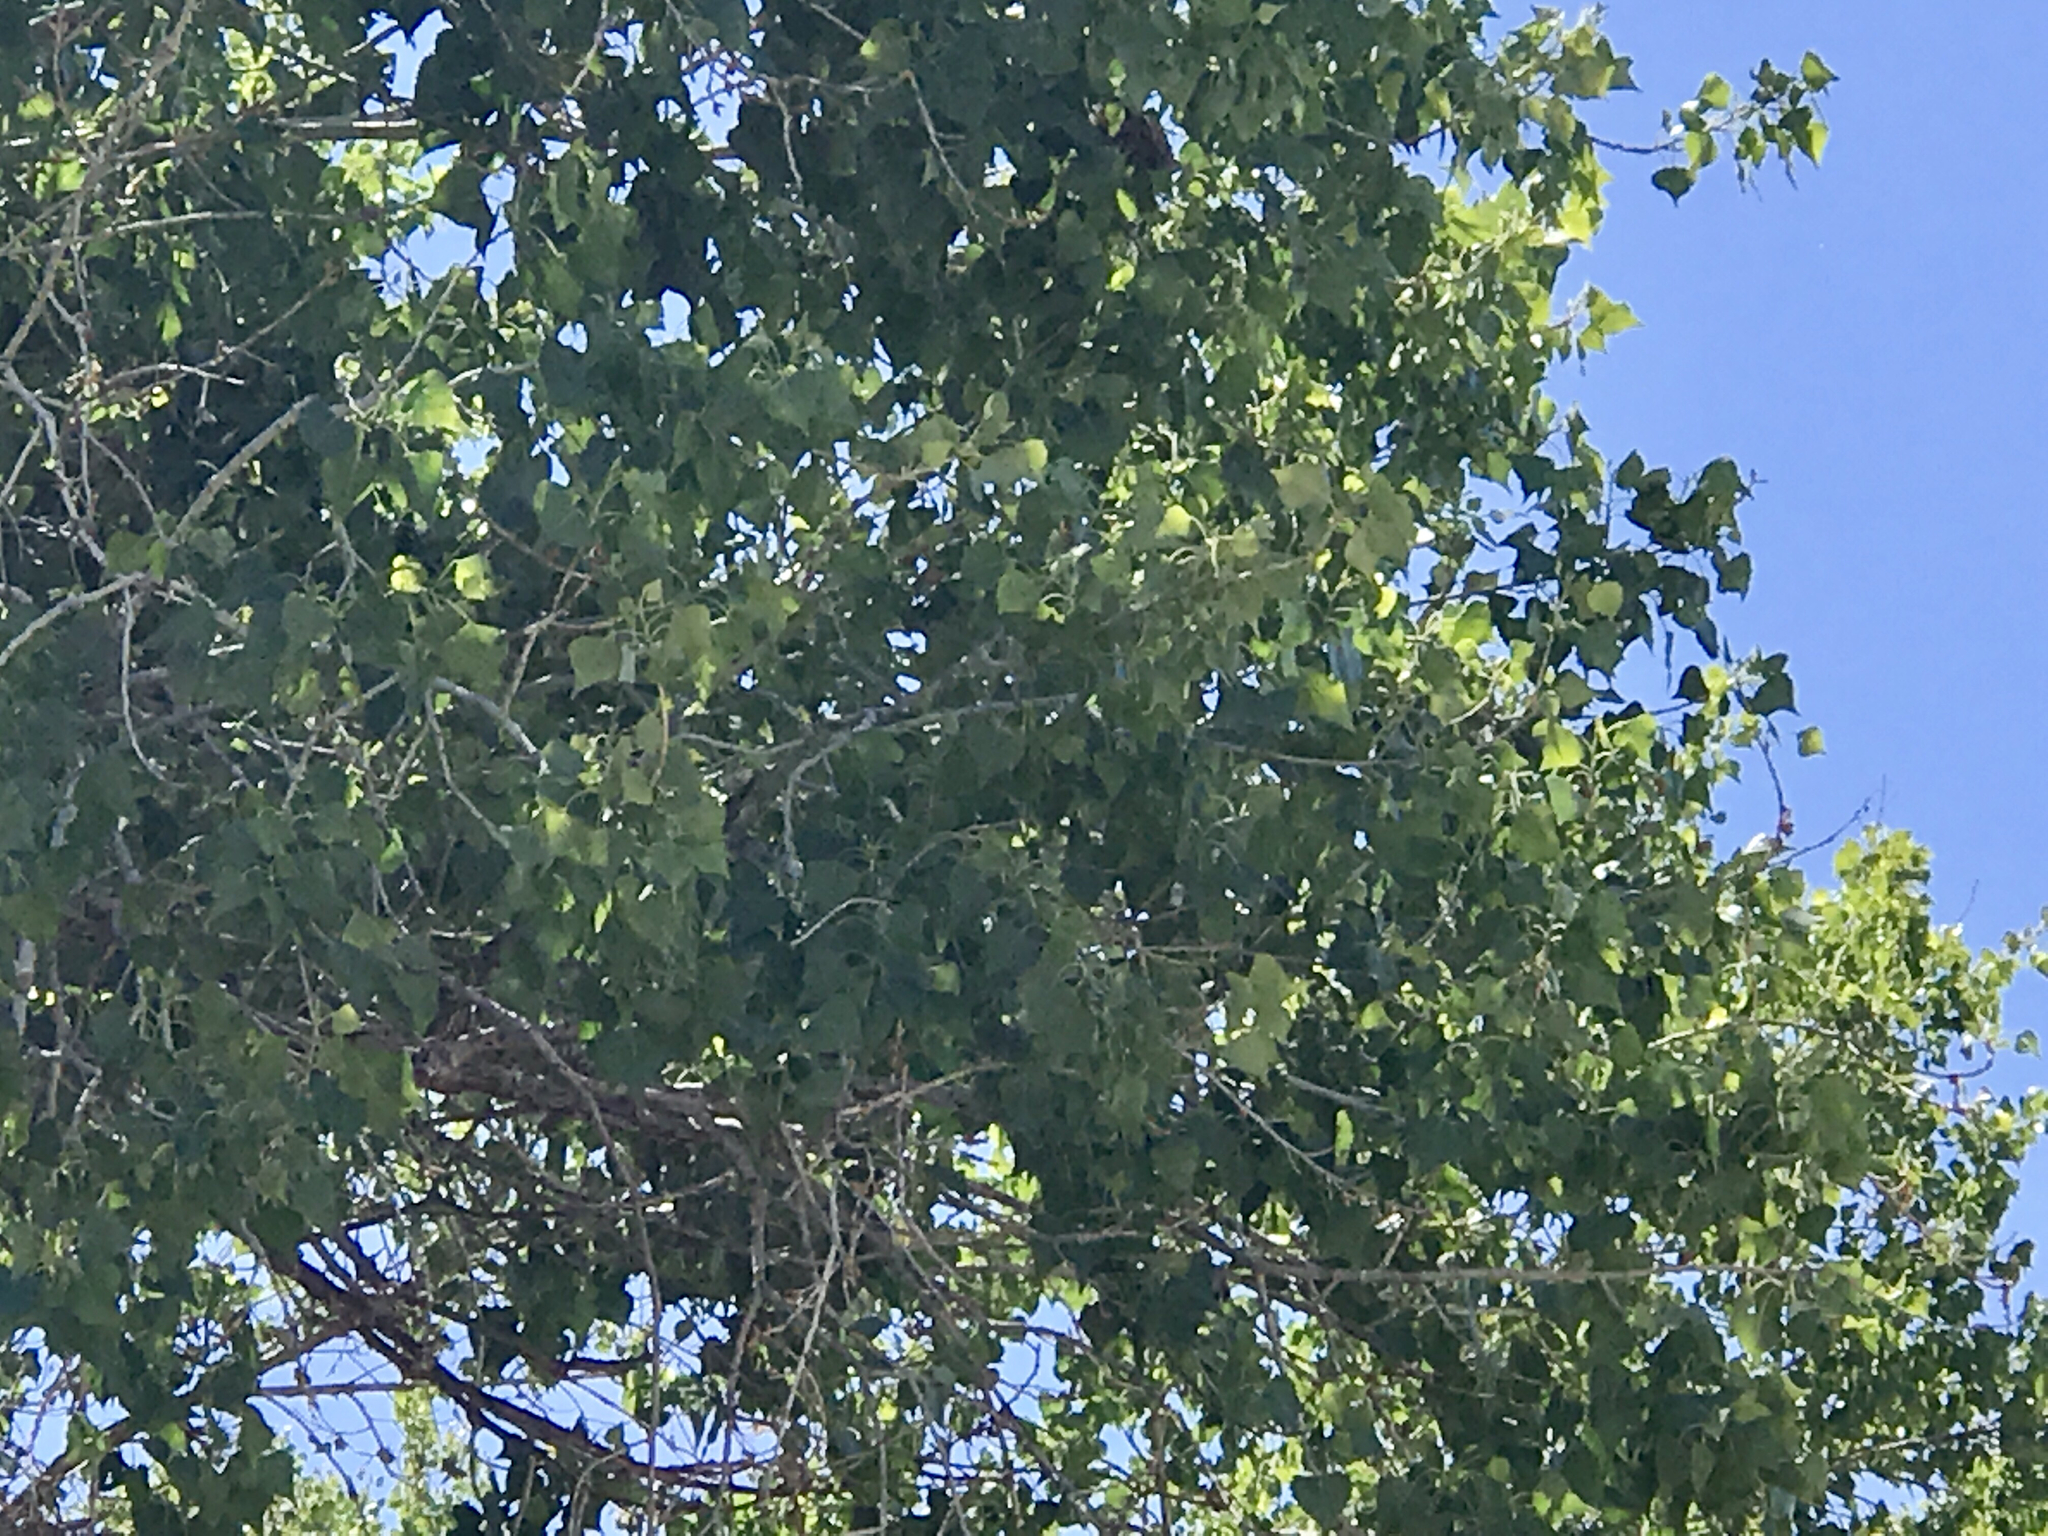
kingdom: Plantae
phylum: Tracheophyta
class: Magnoliopsida
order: Malpighiales
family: Salicaceae
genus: Populus
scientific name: Populus fremontii
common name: Fremont's cottonwood
